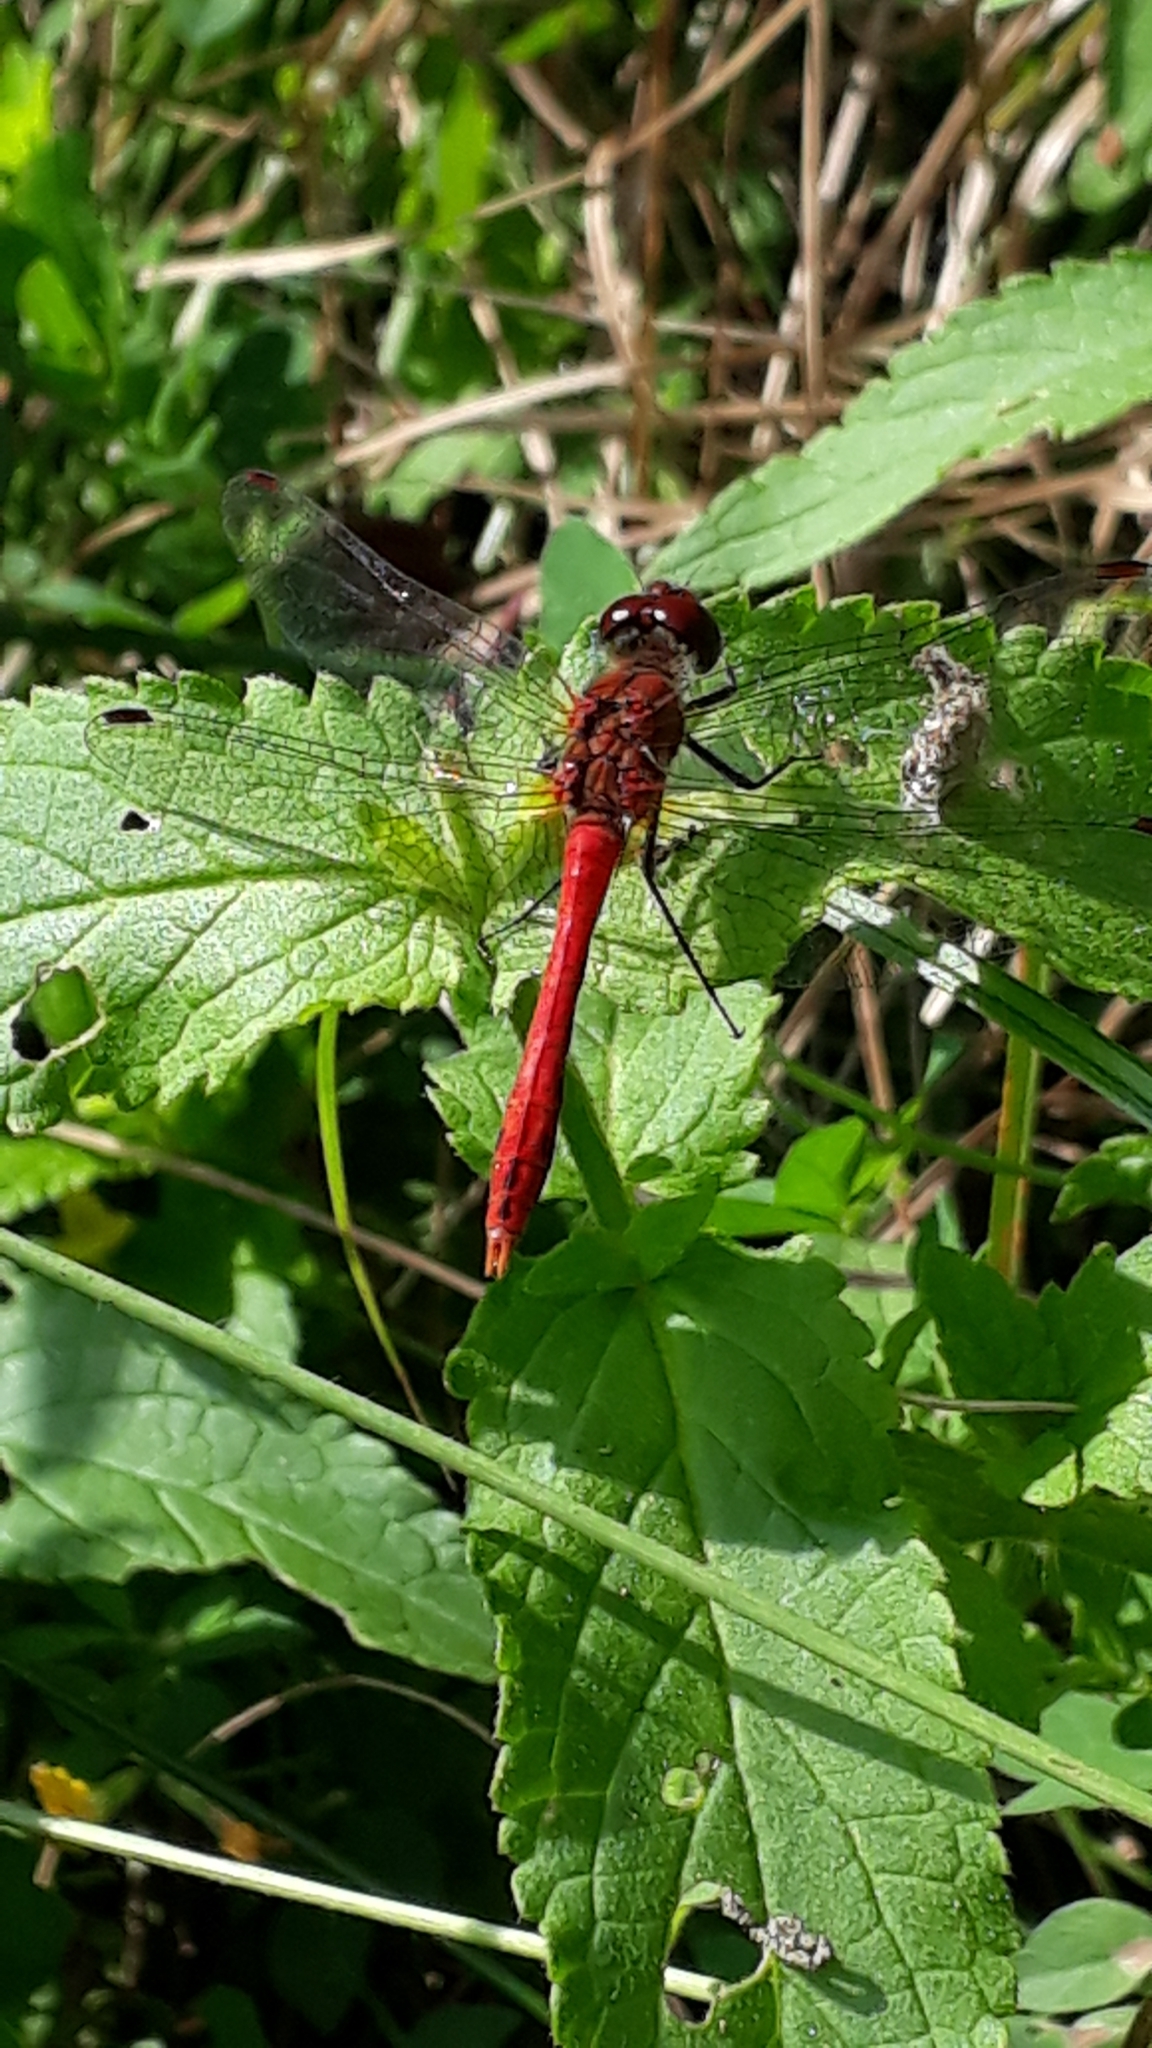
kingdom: Animalia
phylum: Arthropoda
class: Insecta
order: Odonata
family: Libellulidae
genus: Sympetrum
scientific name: Sympetrum sanguineum
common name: Ruddy darter
